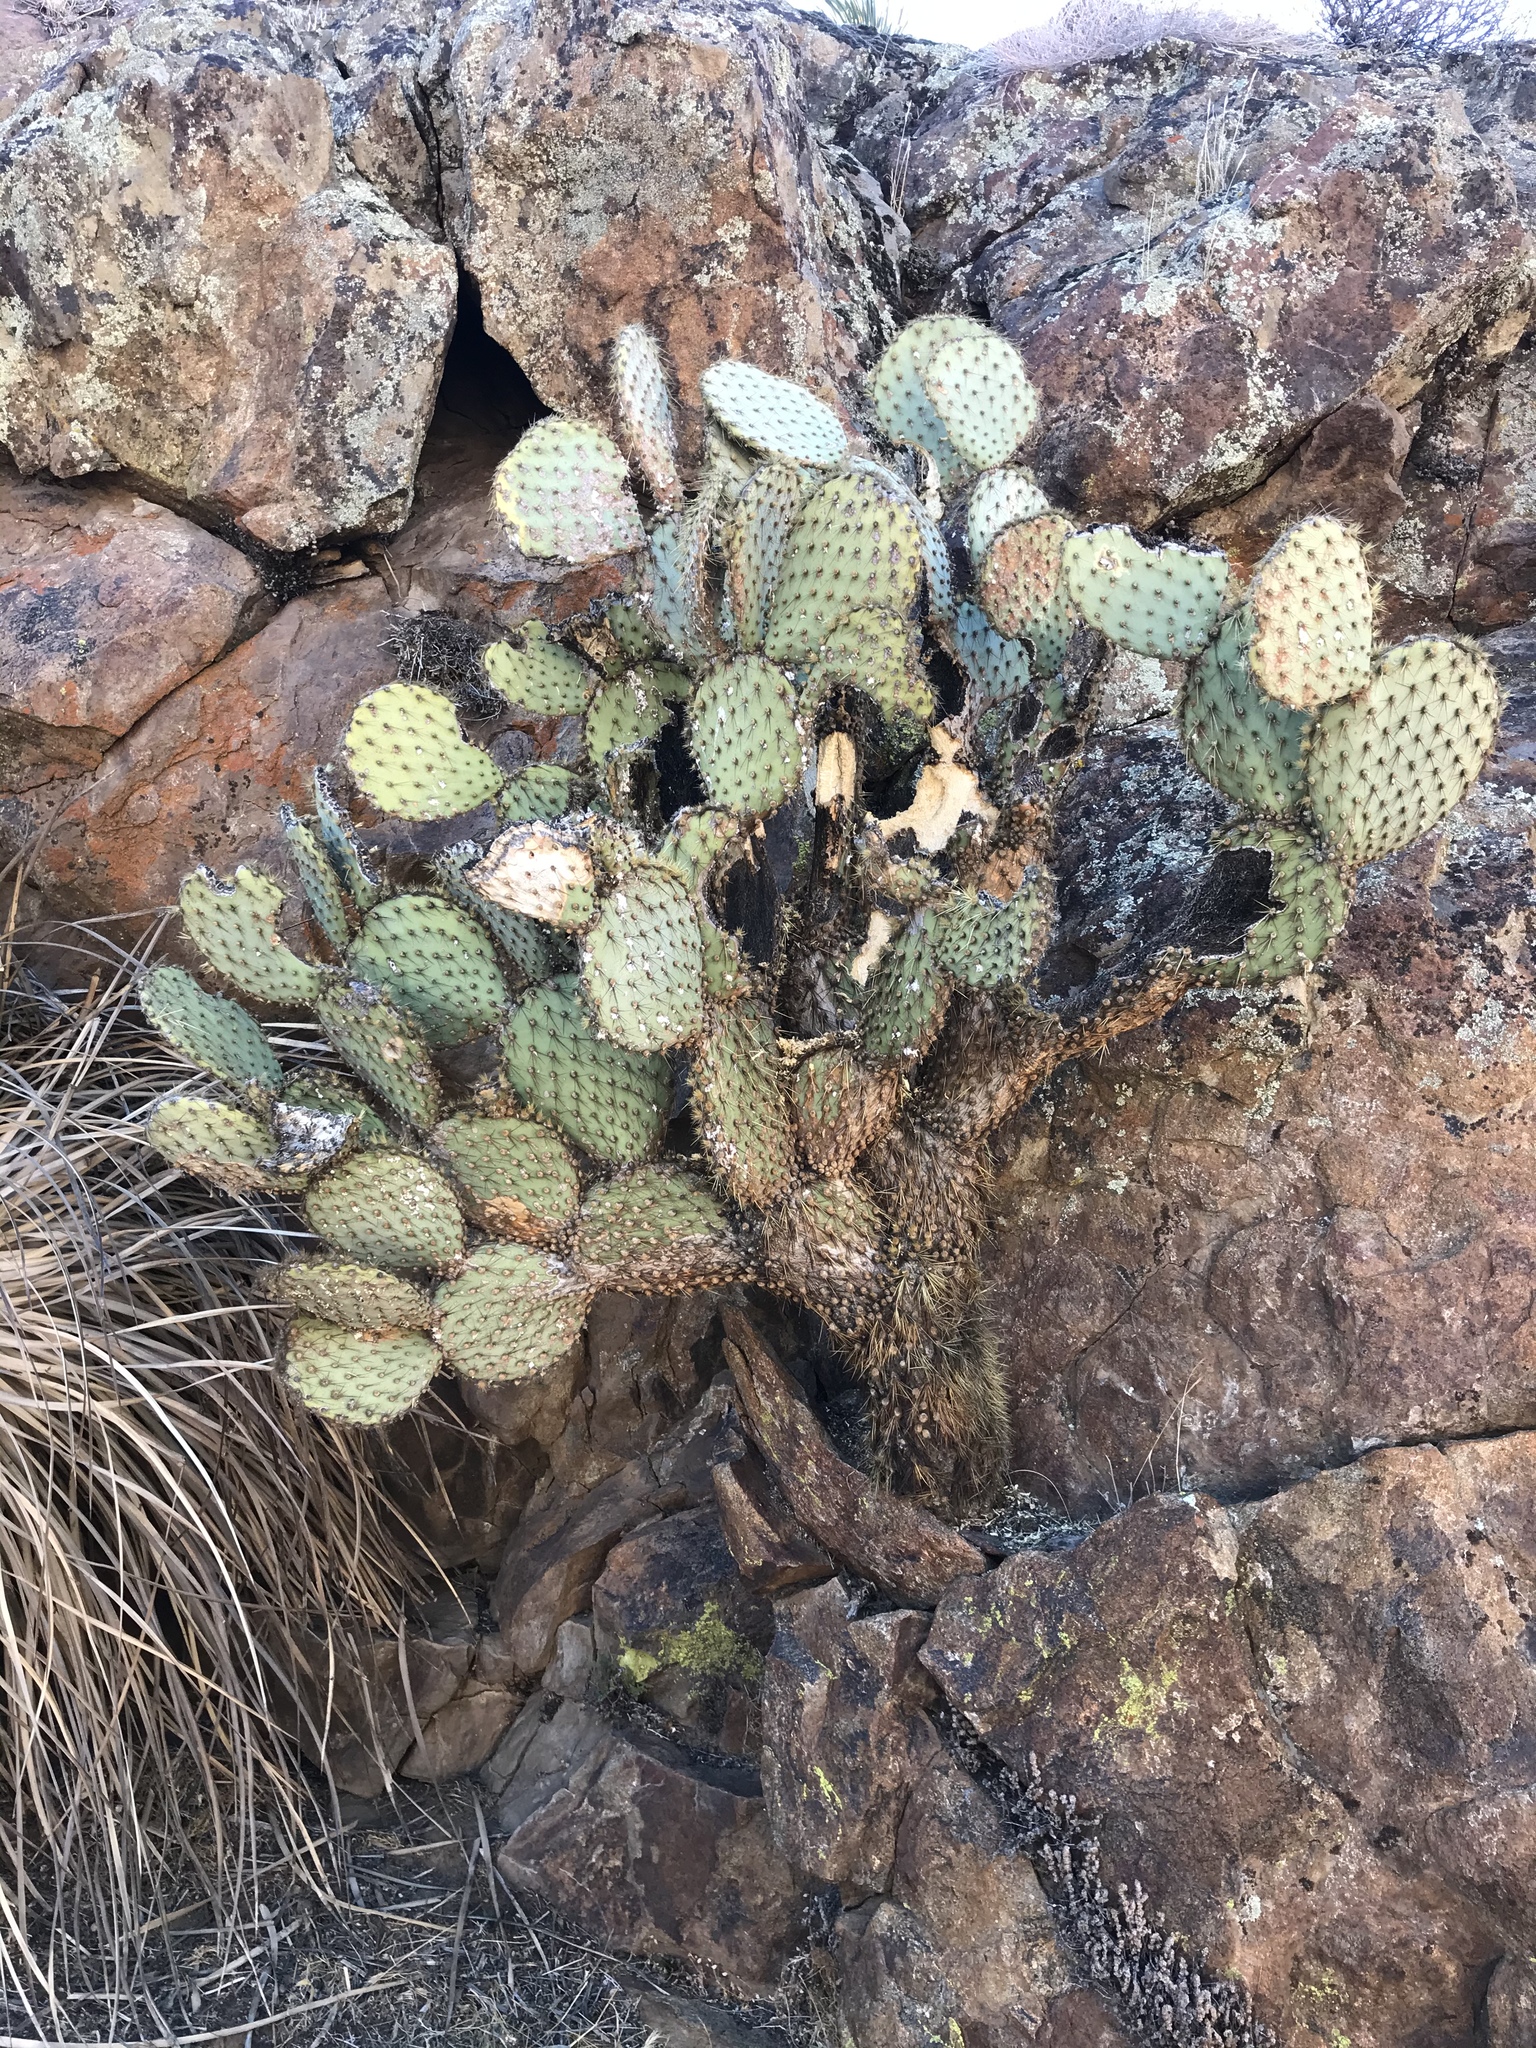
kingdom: Plantae
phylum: Tracheophyta
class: Magnoliopsida
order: Caryophyllales
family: Cactaceae
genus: Opuntia
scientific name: Opuntia chlorotica
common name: Dollar-joint prickly-pear
